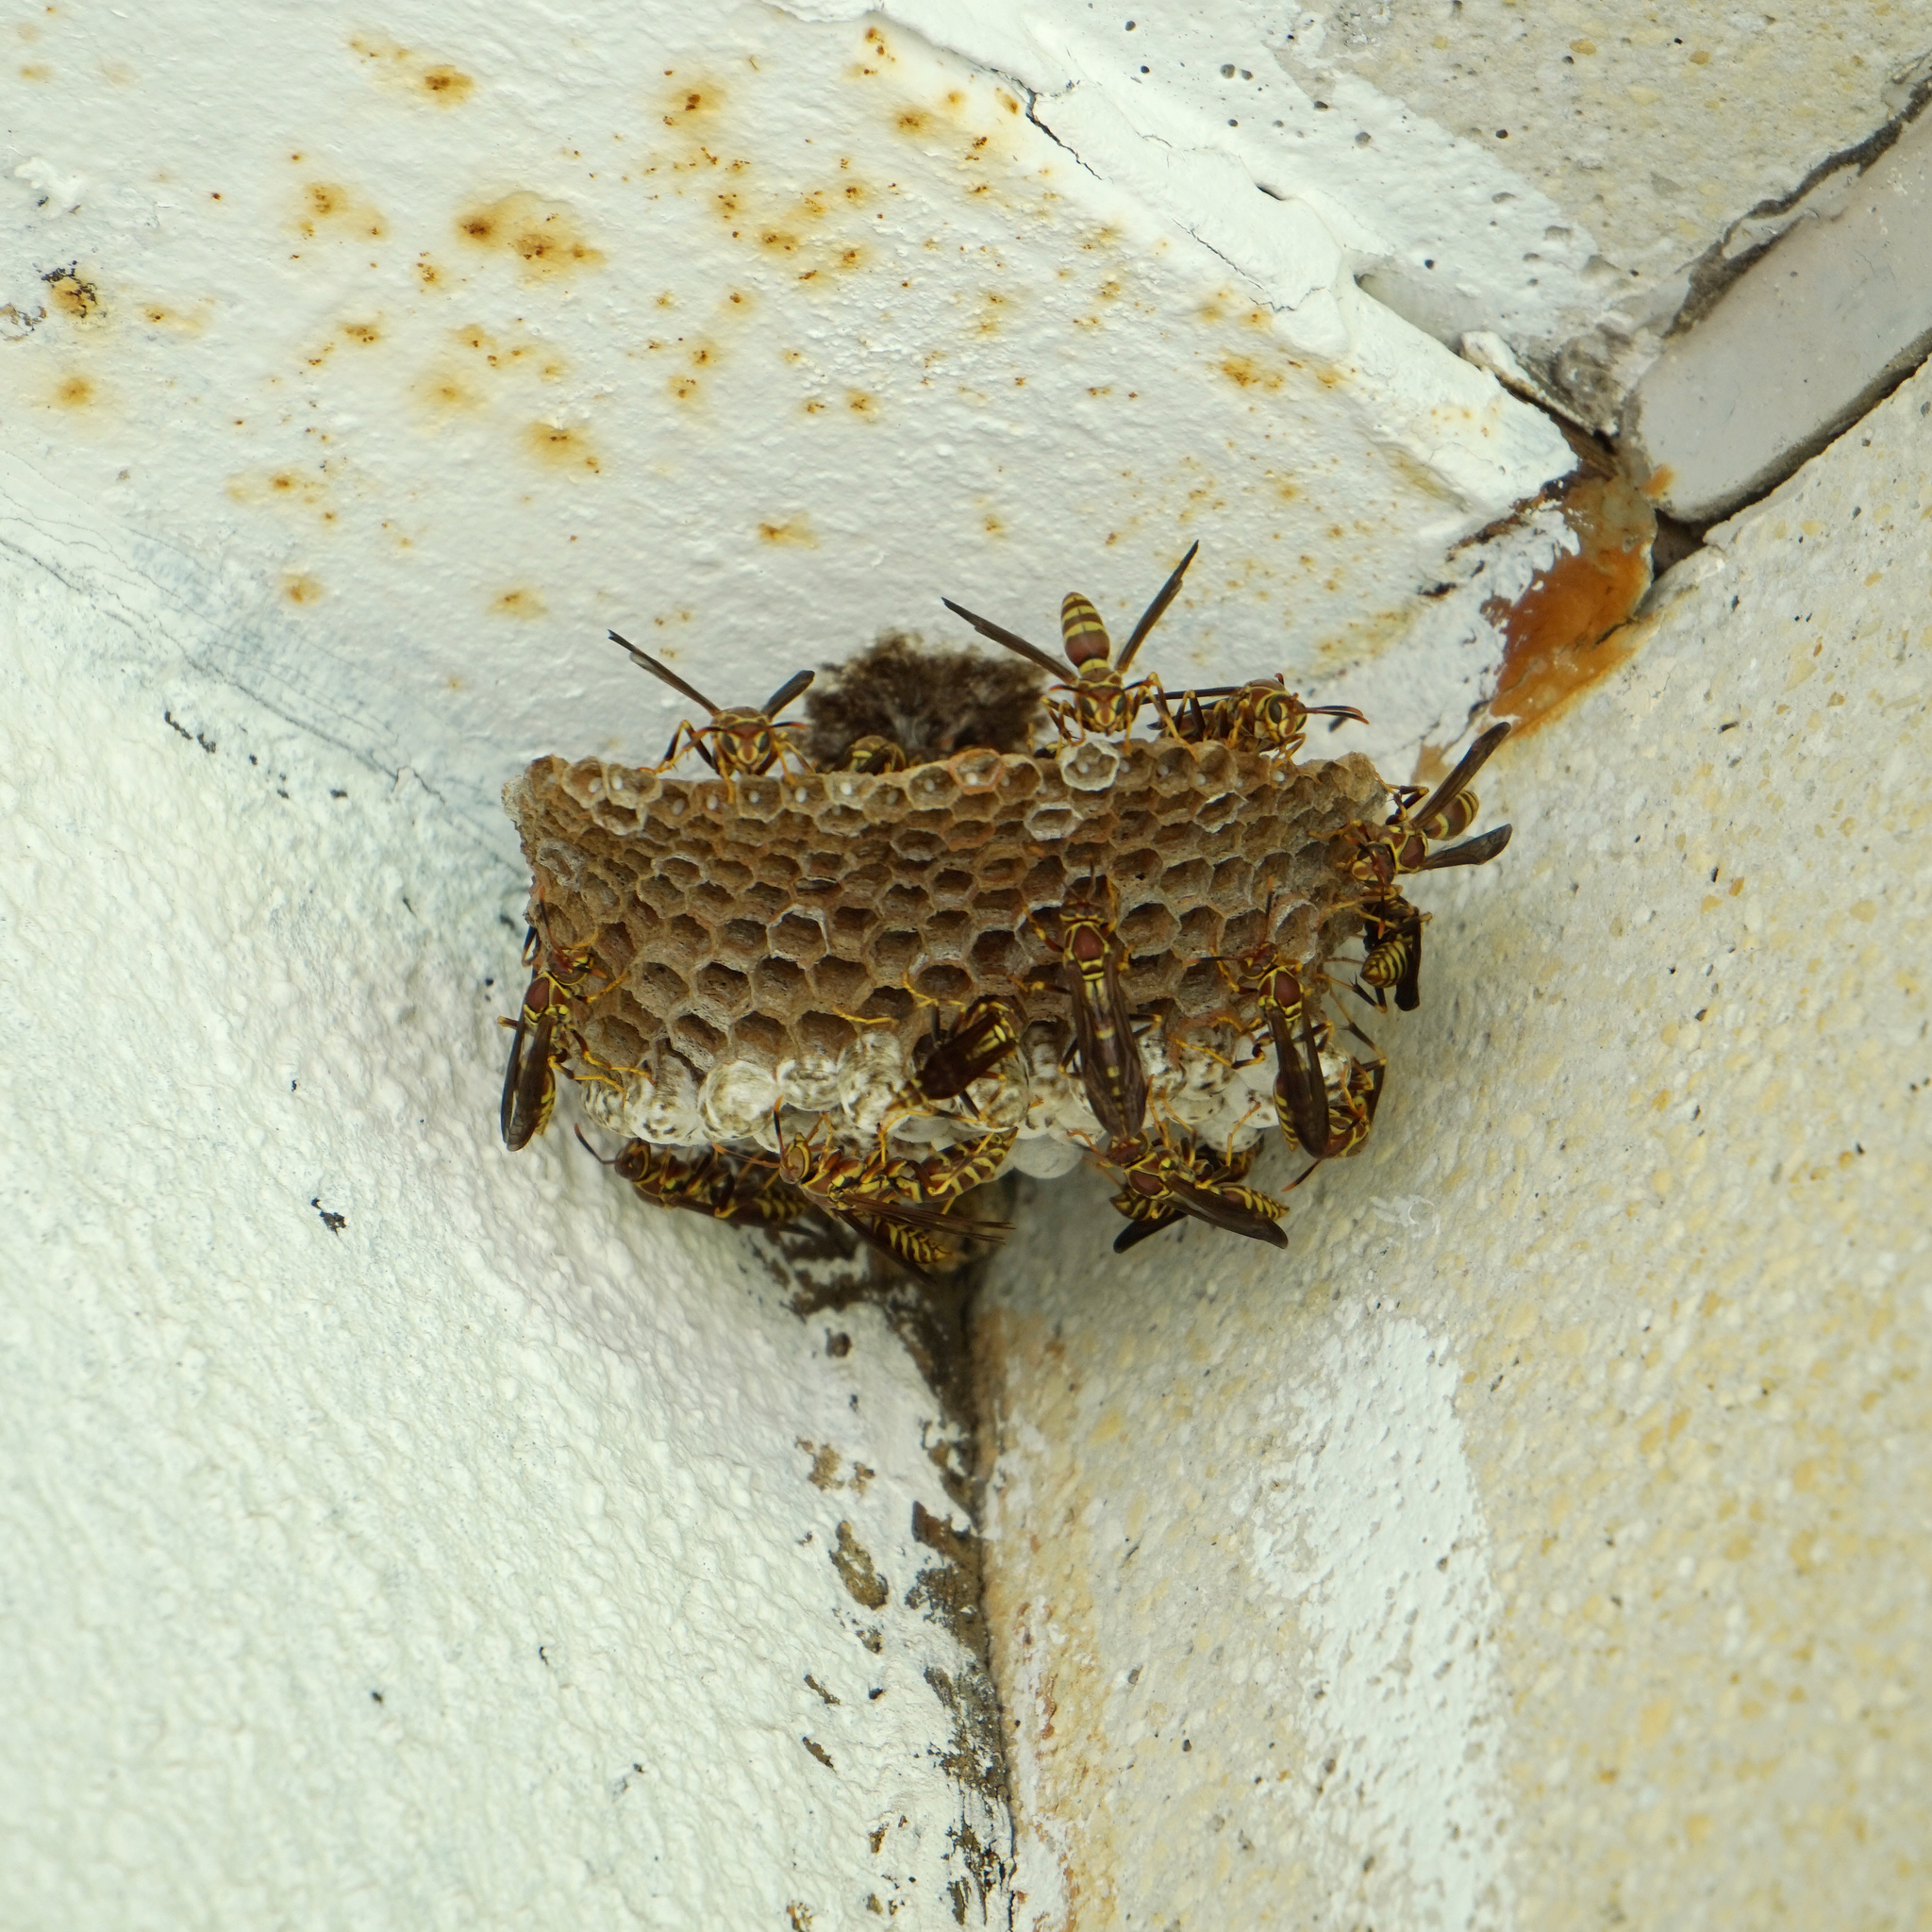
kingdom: Animalia
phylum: Arthropoda
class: Insecta
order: Hymenoptera
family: Eumenidae
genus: Polistes
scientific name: Polistes exclamans
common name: Paper wasp
